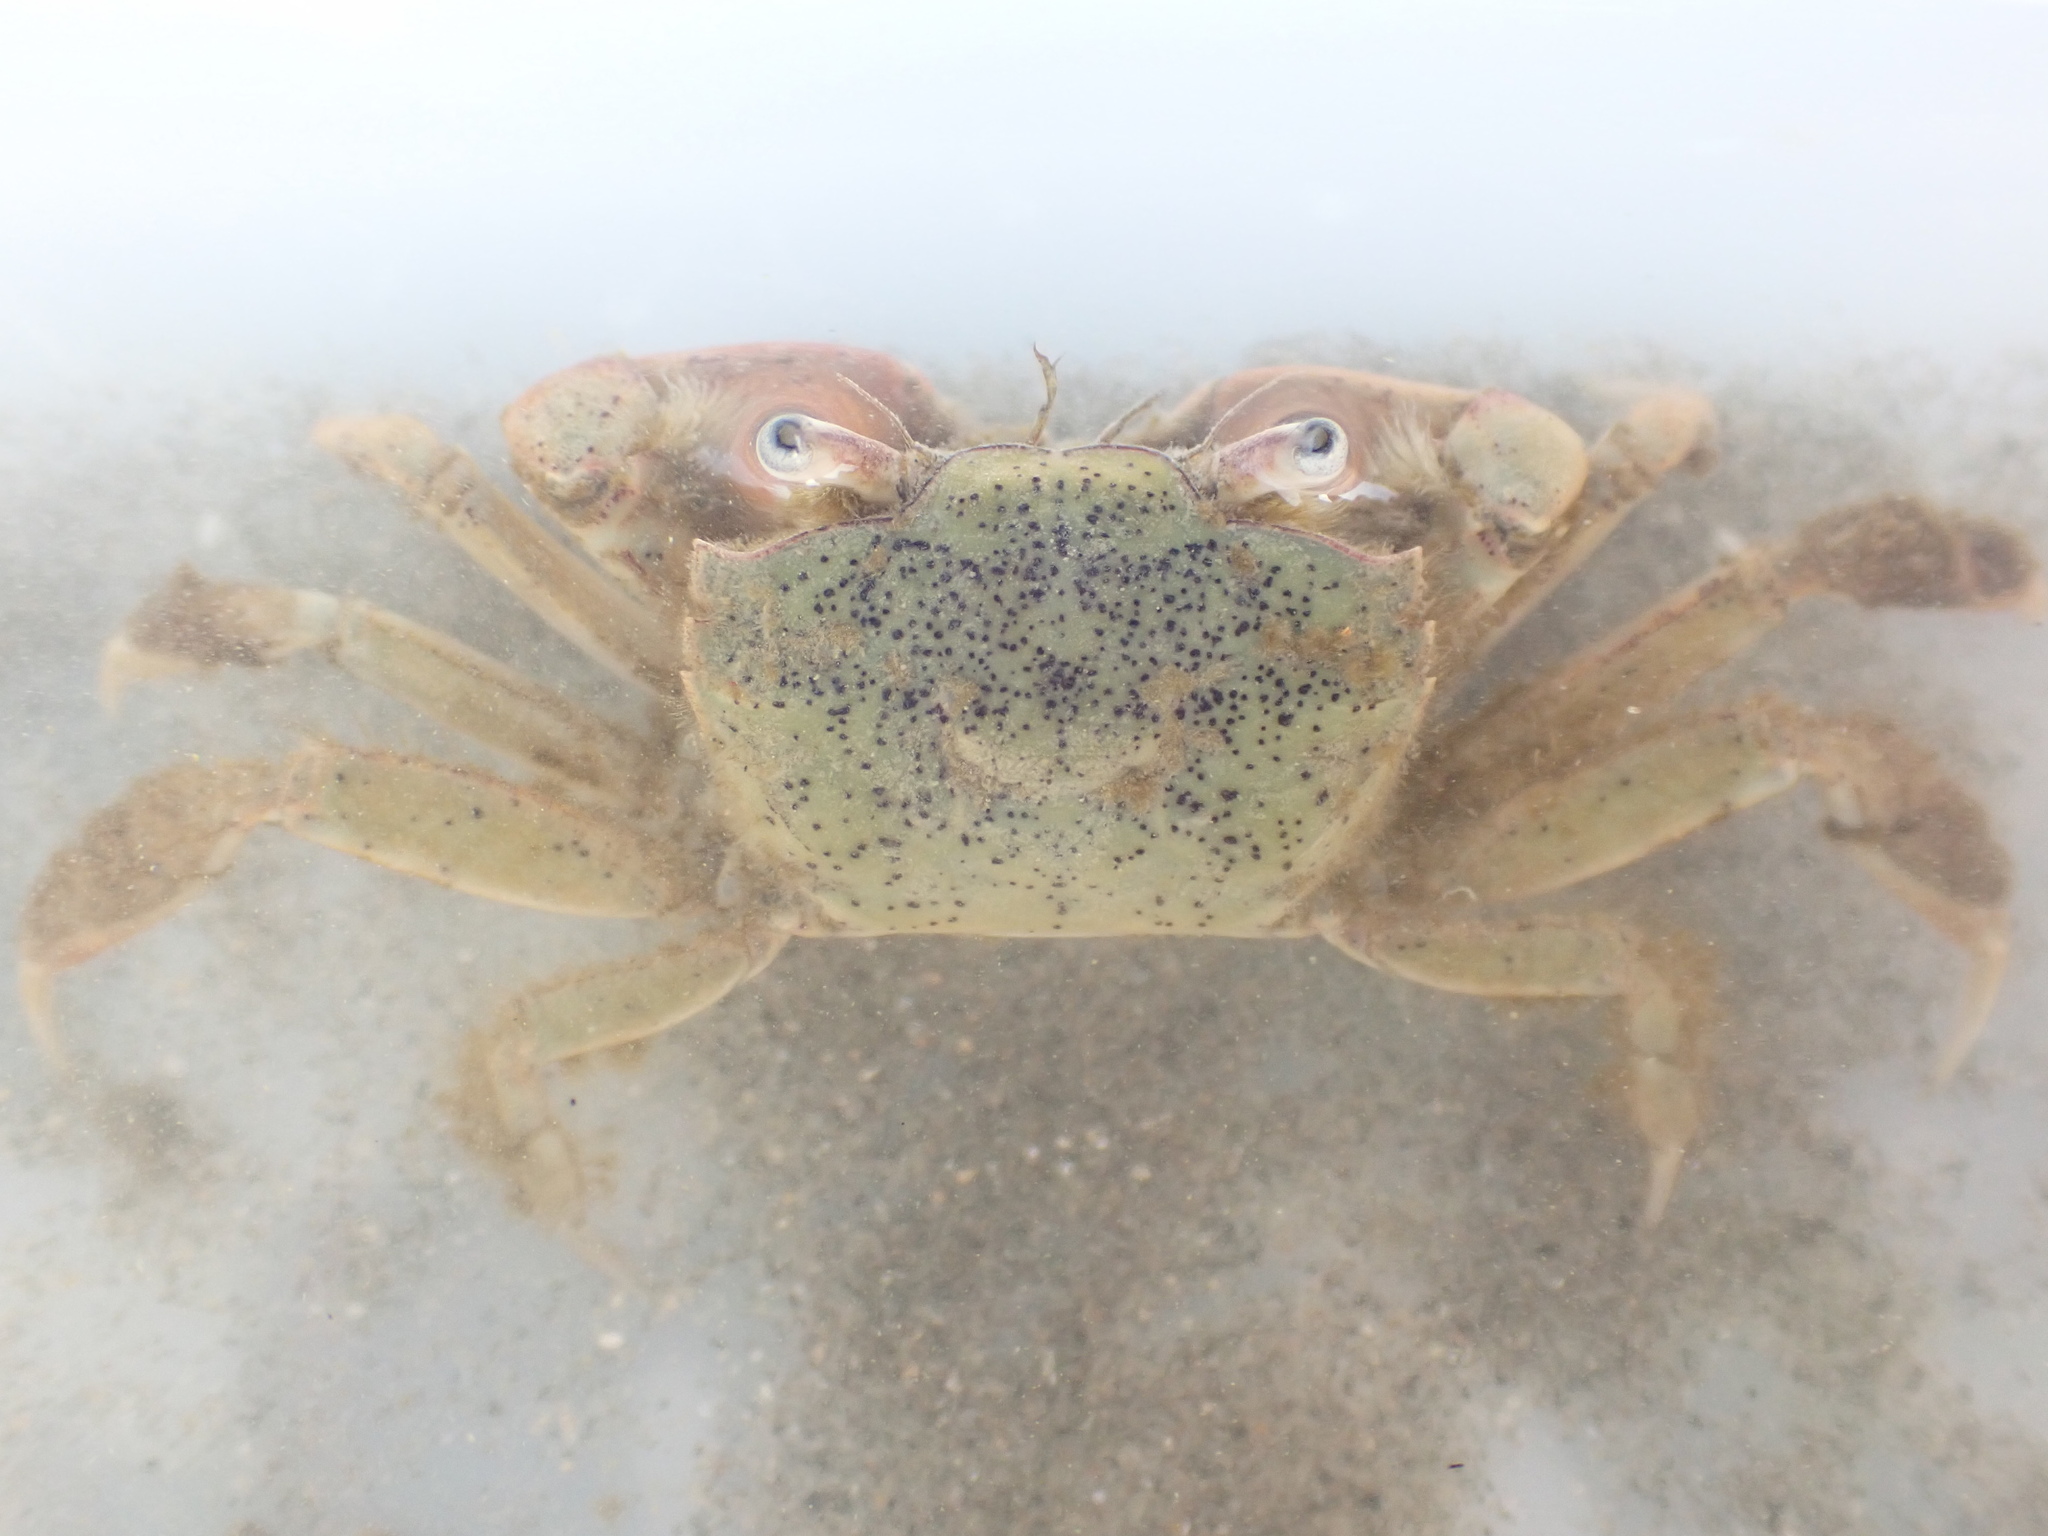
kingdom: Animalia
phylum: Arthropoda
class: Malacostraca
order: Decapoda
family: Macrophthalmidae
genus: Hemiplax
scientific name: Hemiplax hirtipes
